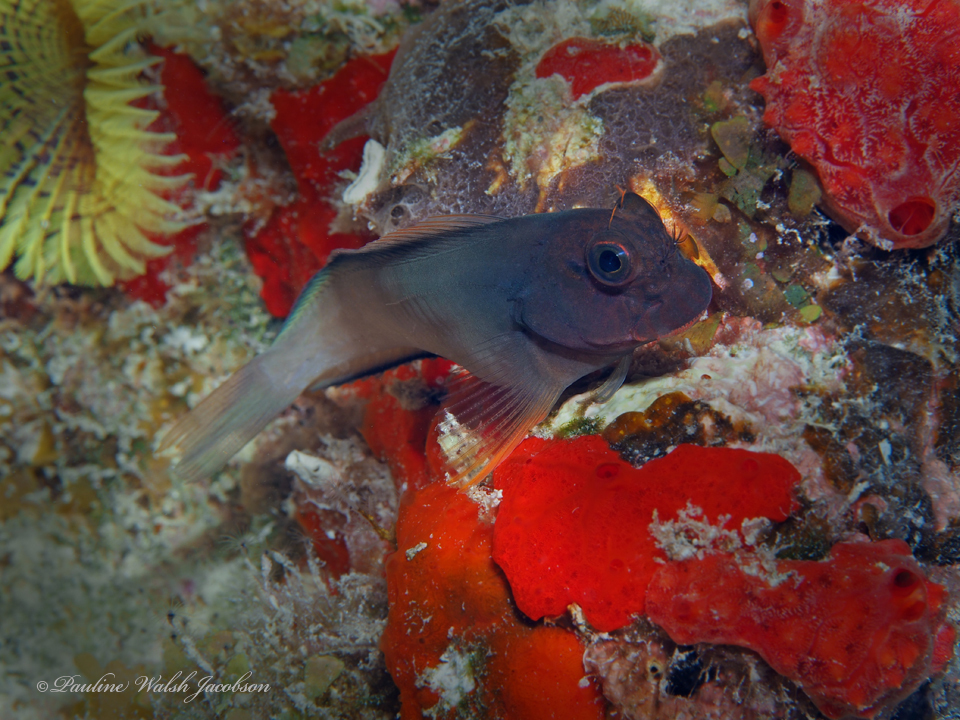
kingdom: Animalia
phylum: Chordata
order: Perciformes
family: Blenniidae
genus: Ophioblennius
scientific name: Ophioblennius macclurei
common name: Redlip blenny
